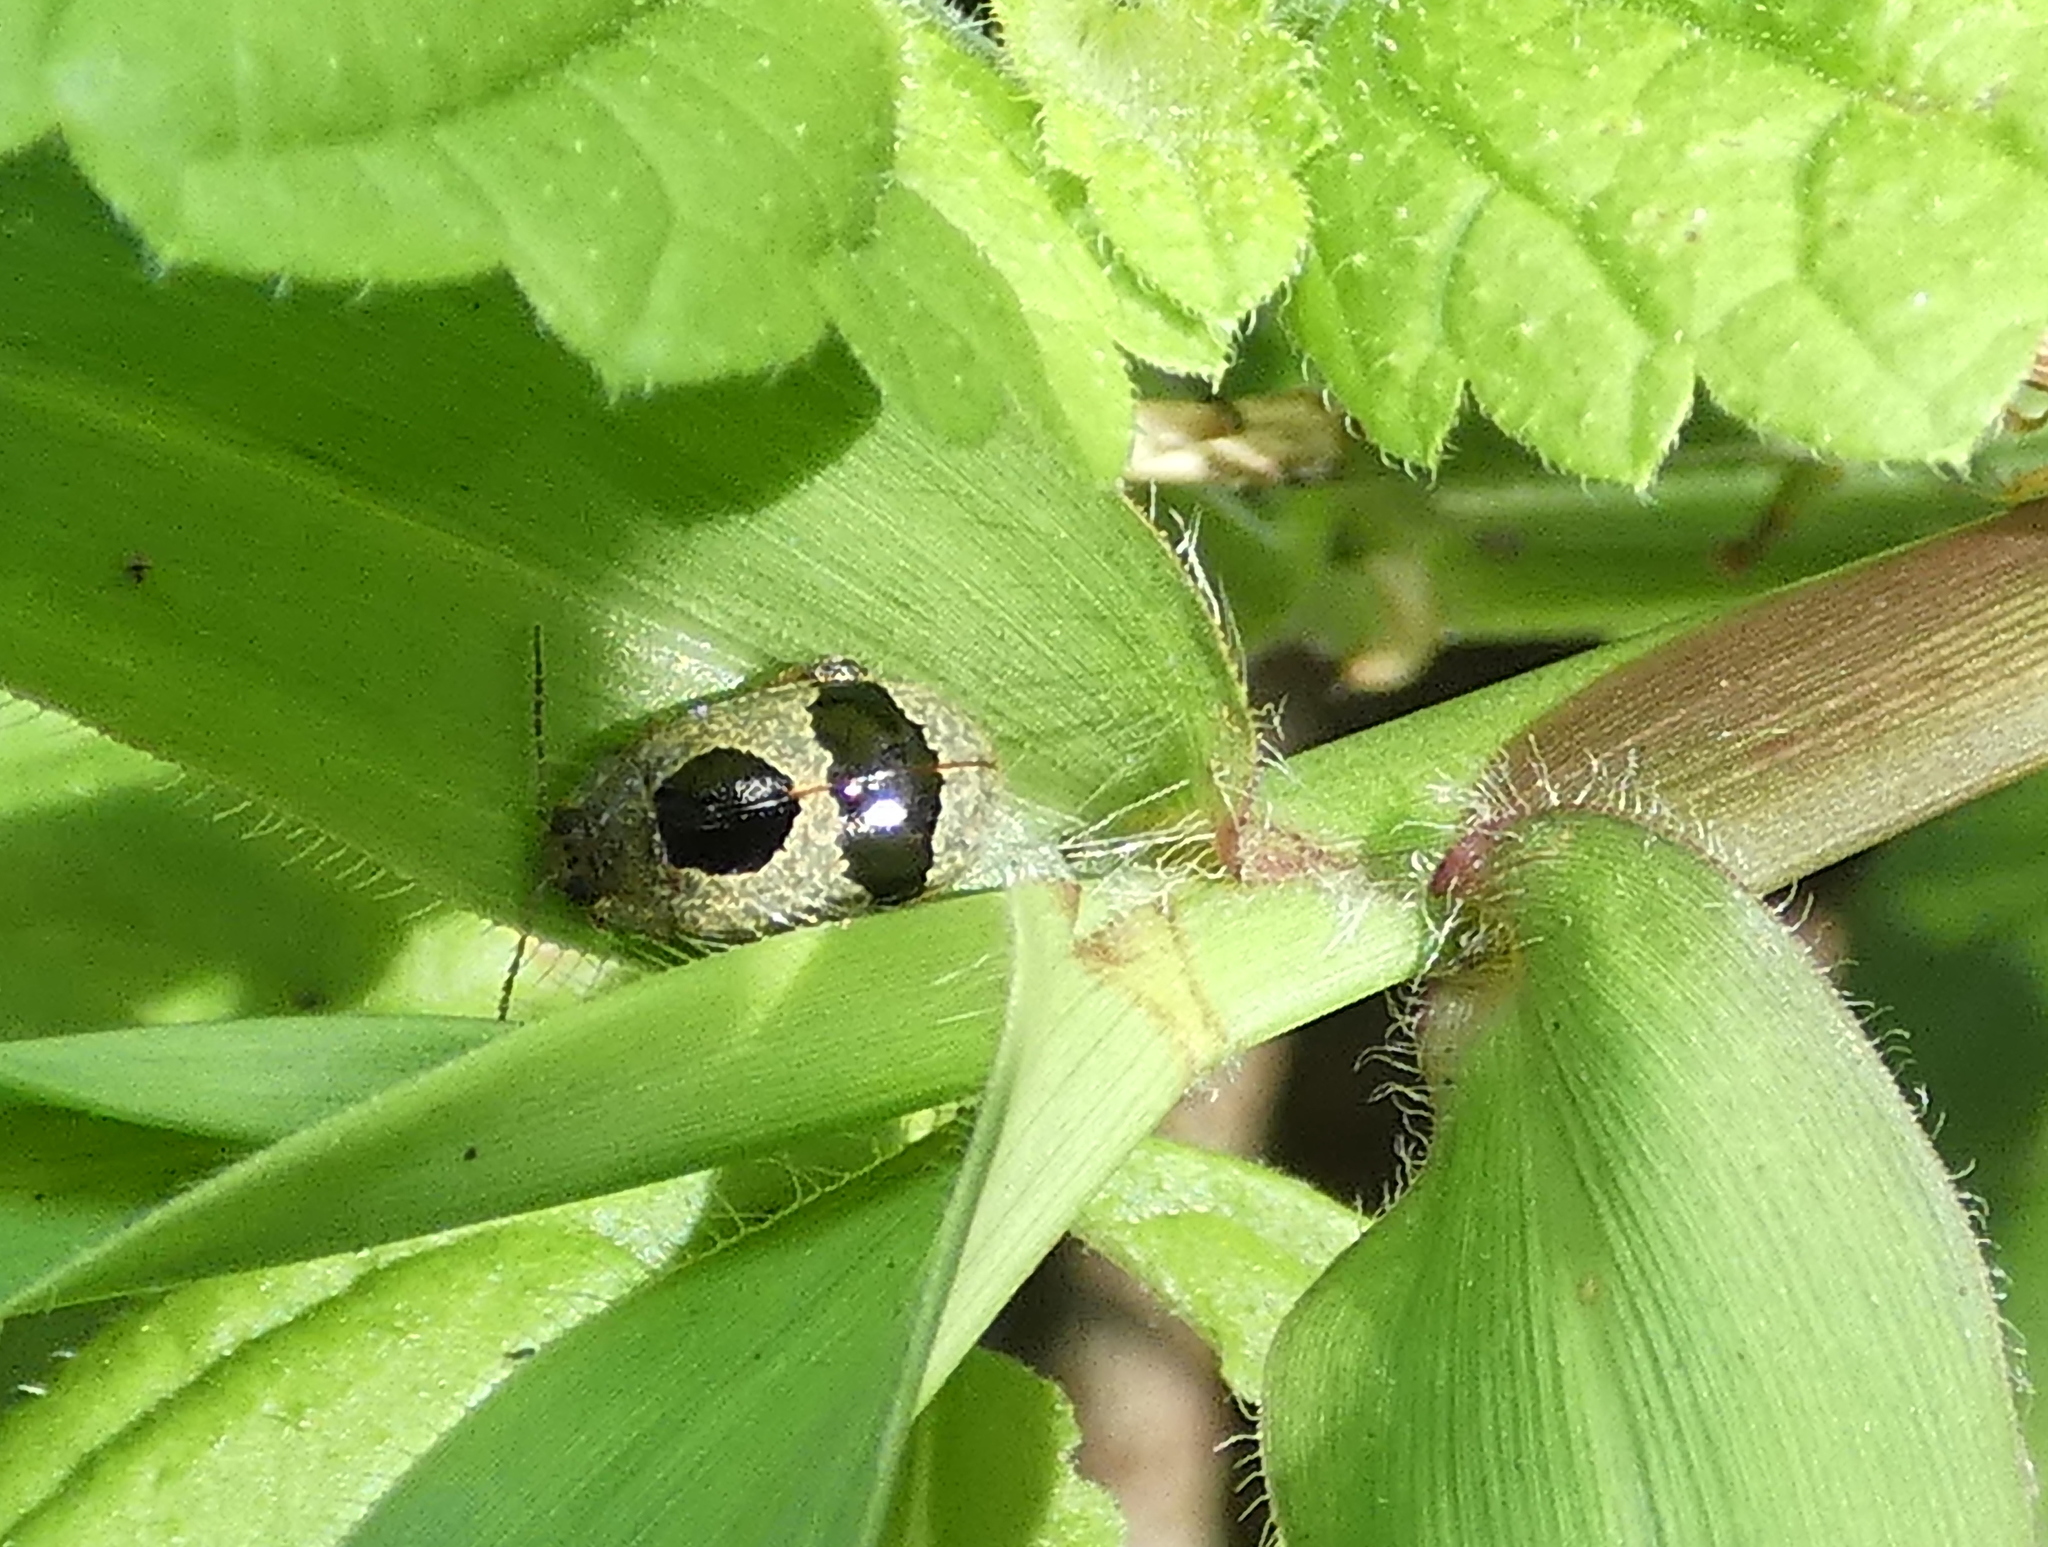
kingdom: Animalia
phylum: Arthropoda
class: Insecta
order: Coleoptera
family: Chrysomelidae
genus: Alagoasa
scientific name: Alagoasa
